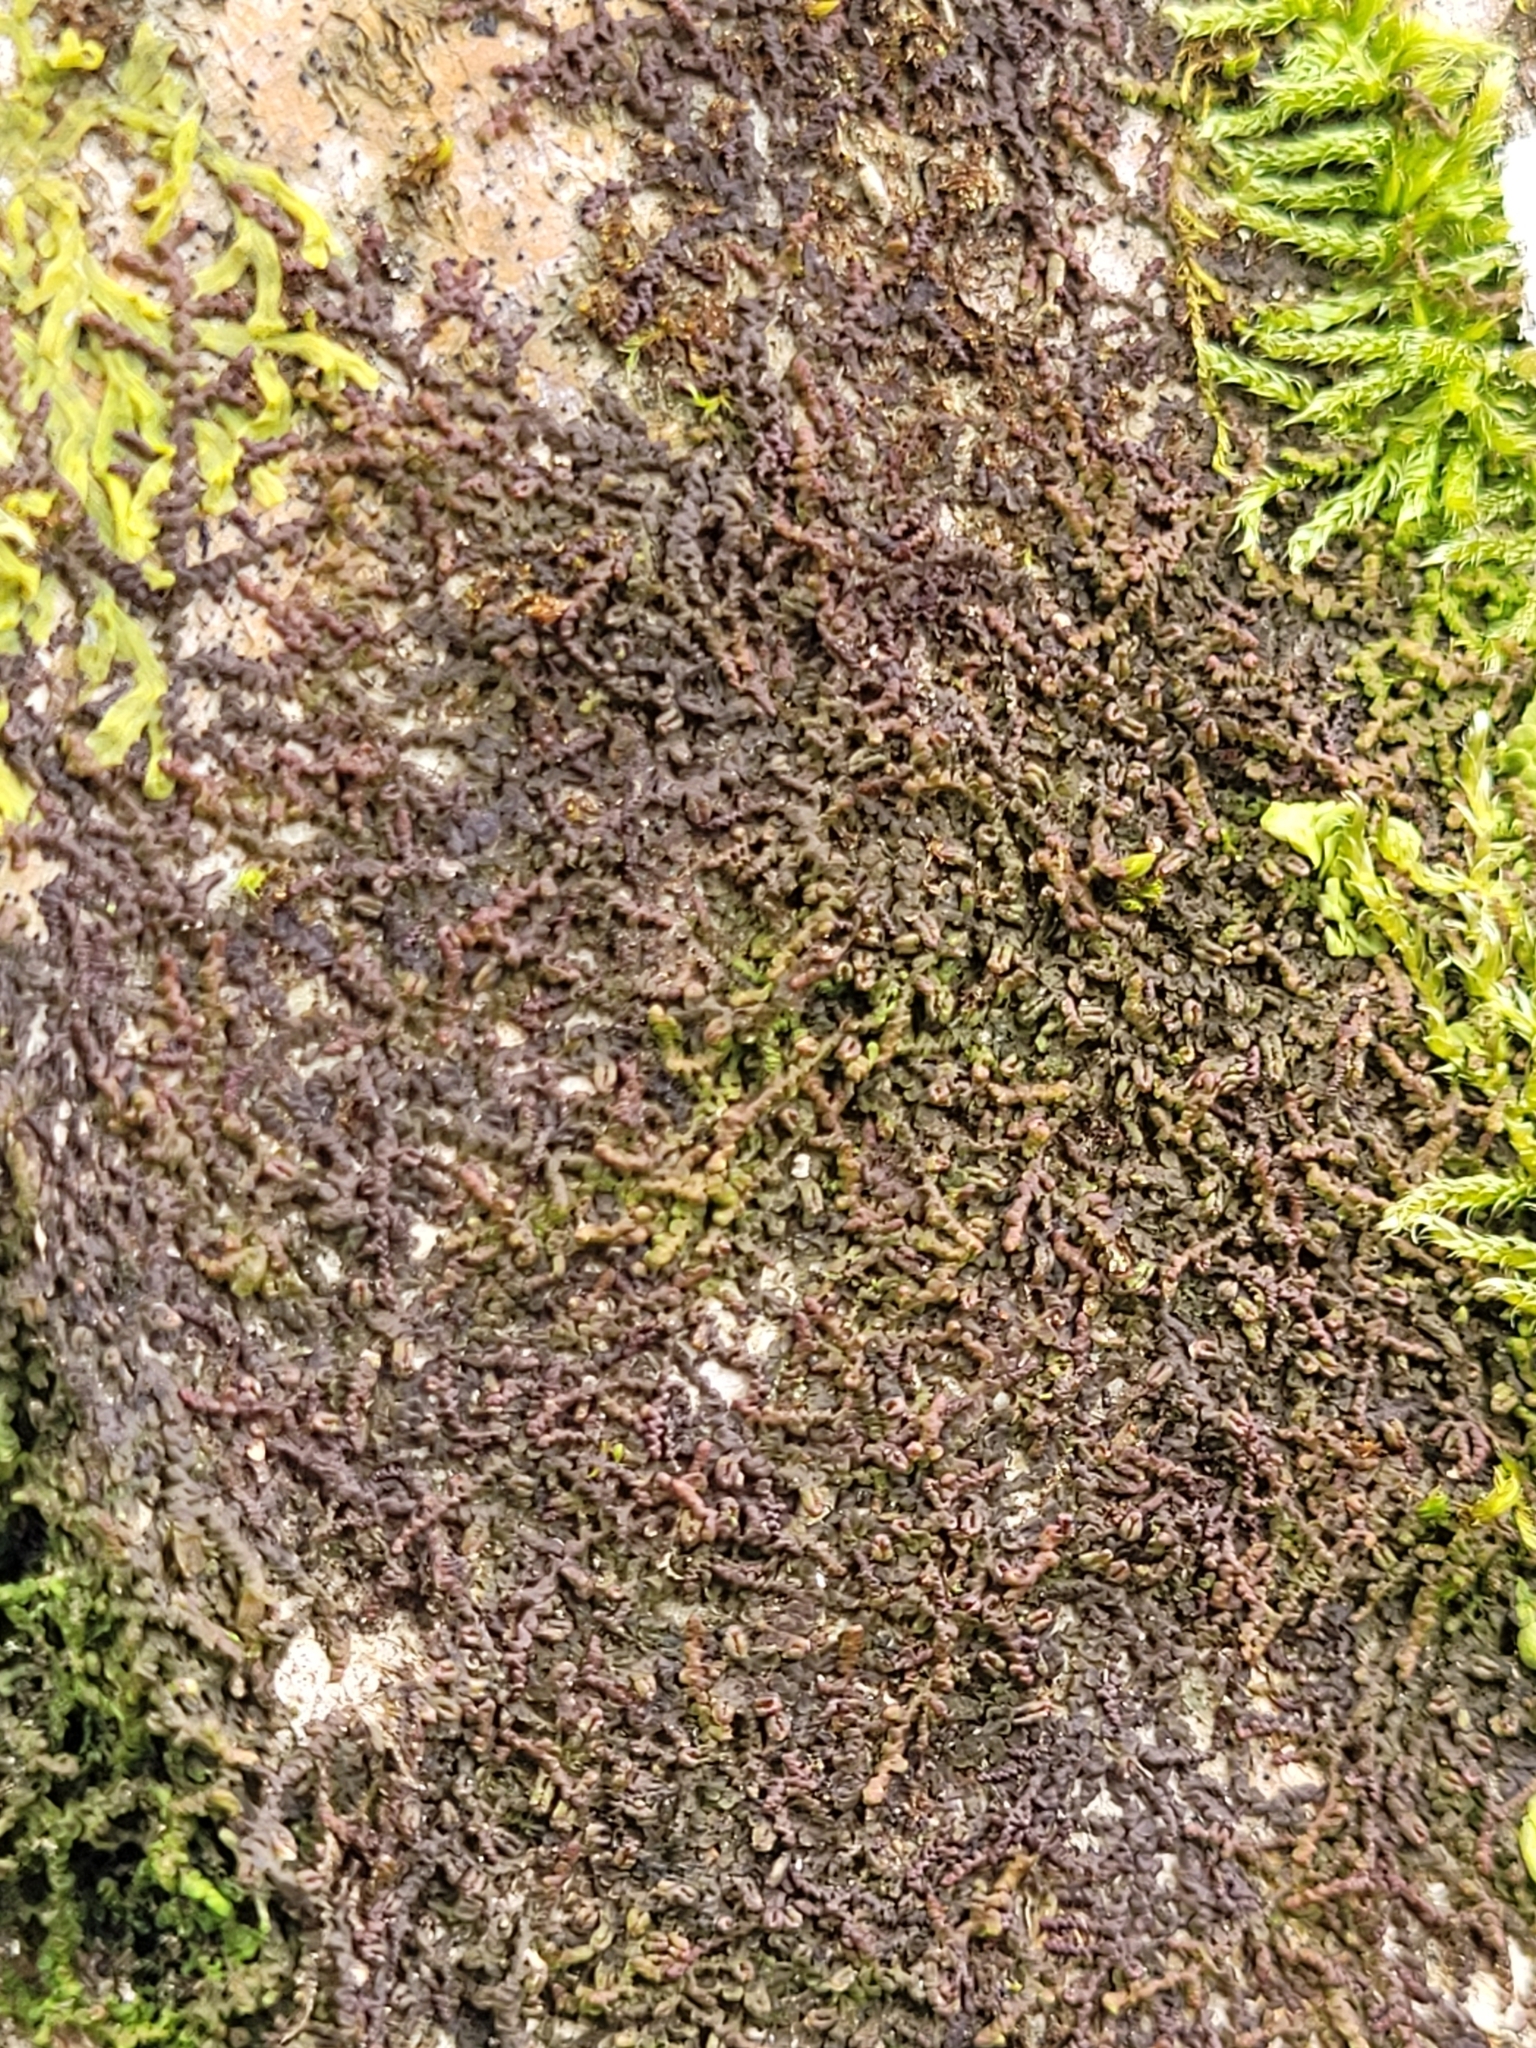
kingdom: Plantae
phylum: Marchantiophyta
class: Jungermanniopsida
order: Porellales
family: Frullaniaceae
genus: Frullania
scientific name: Frullania dilatata
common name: Dilated scalewort
